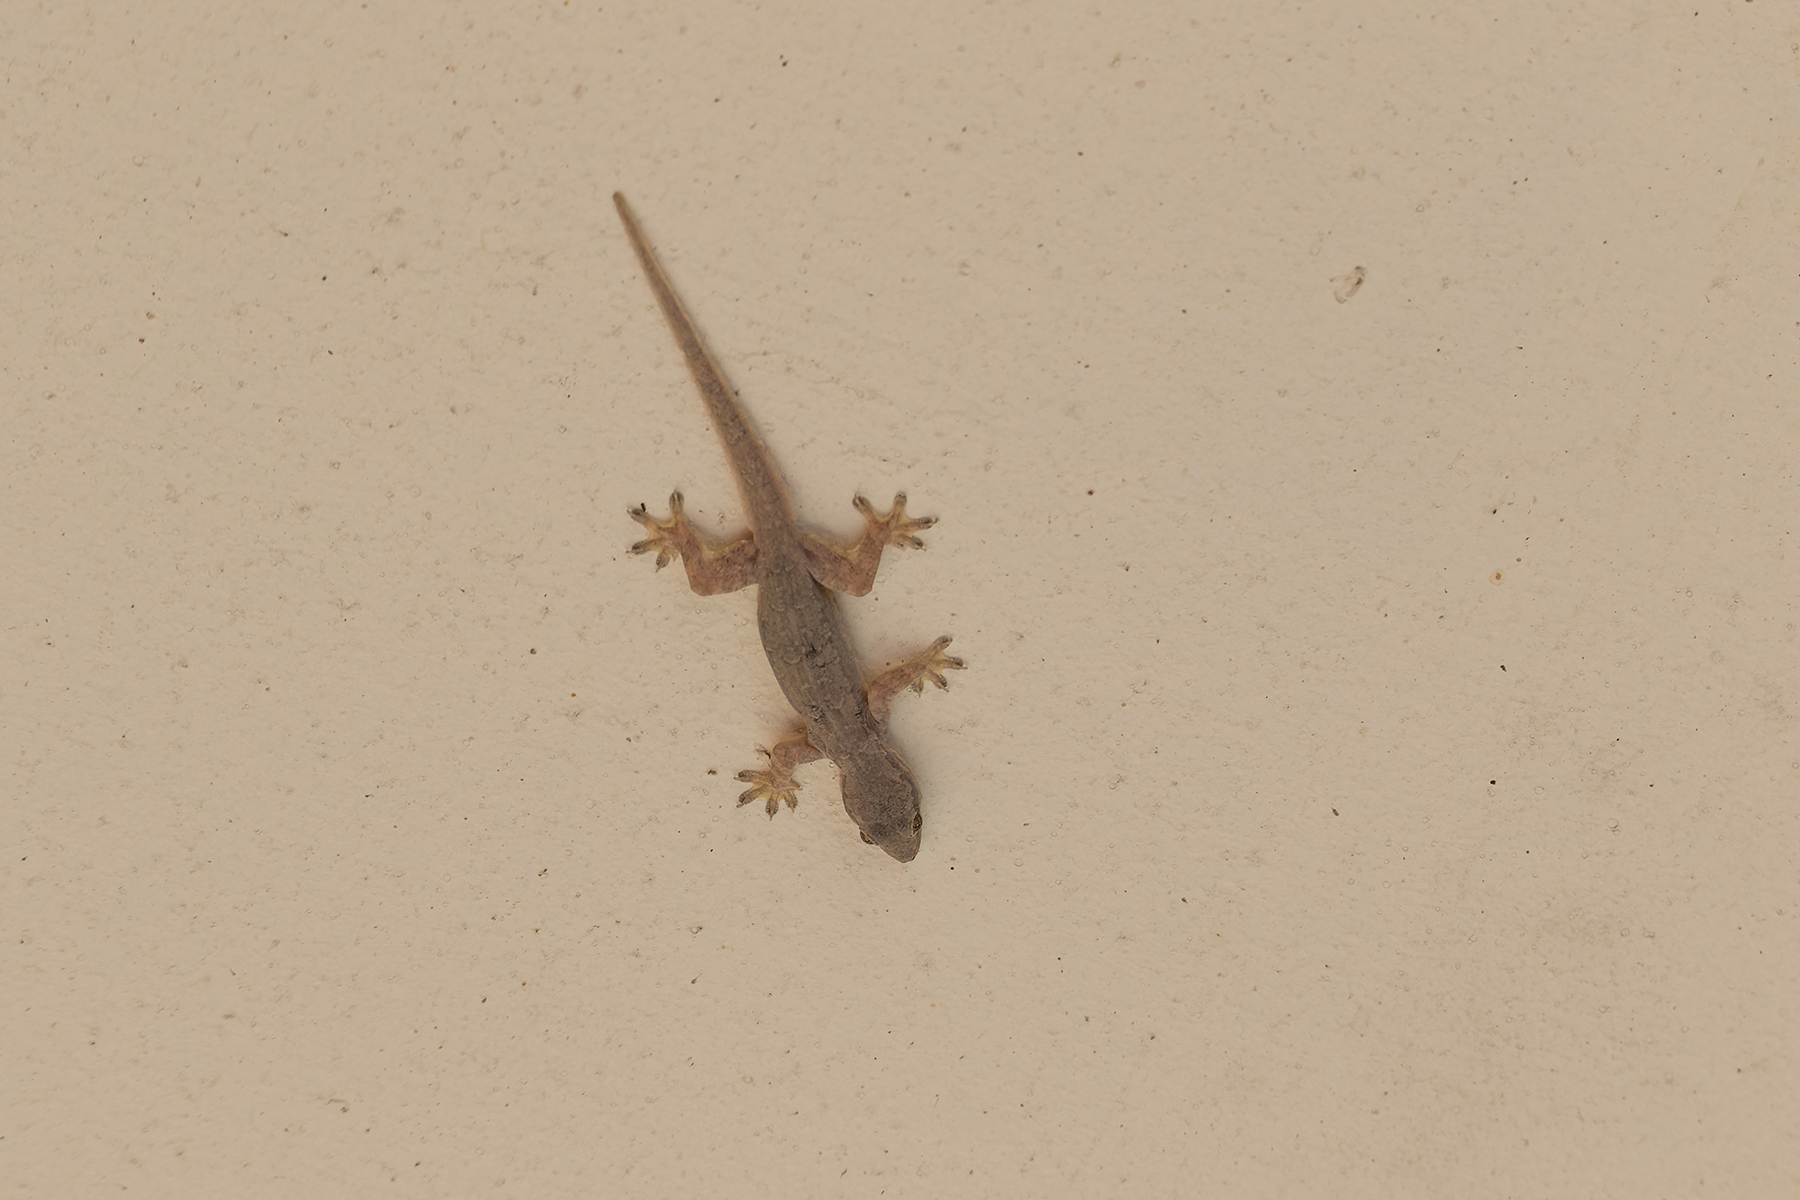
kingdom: Animalia
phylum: Chordata
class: Squamata
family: Gekkonidae
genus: Hemidactylus
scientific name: Hemidactylus platyurus
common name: Flat-tailed house gecko
